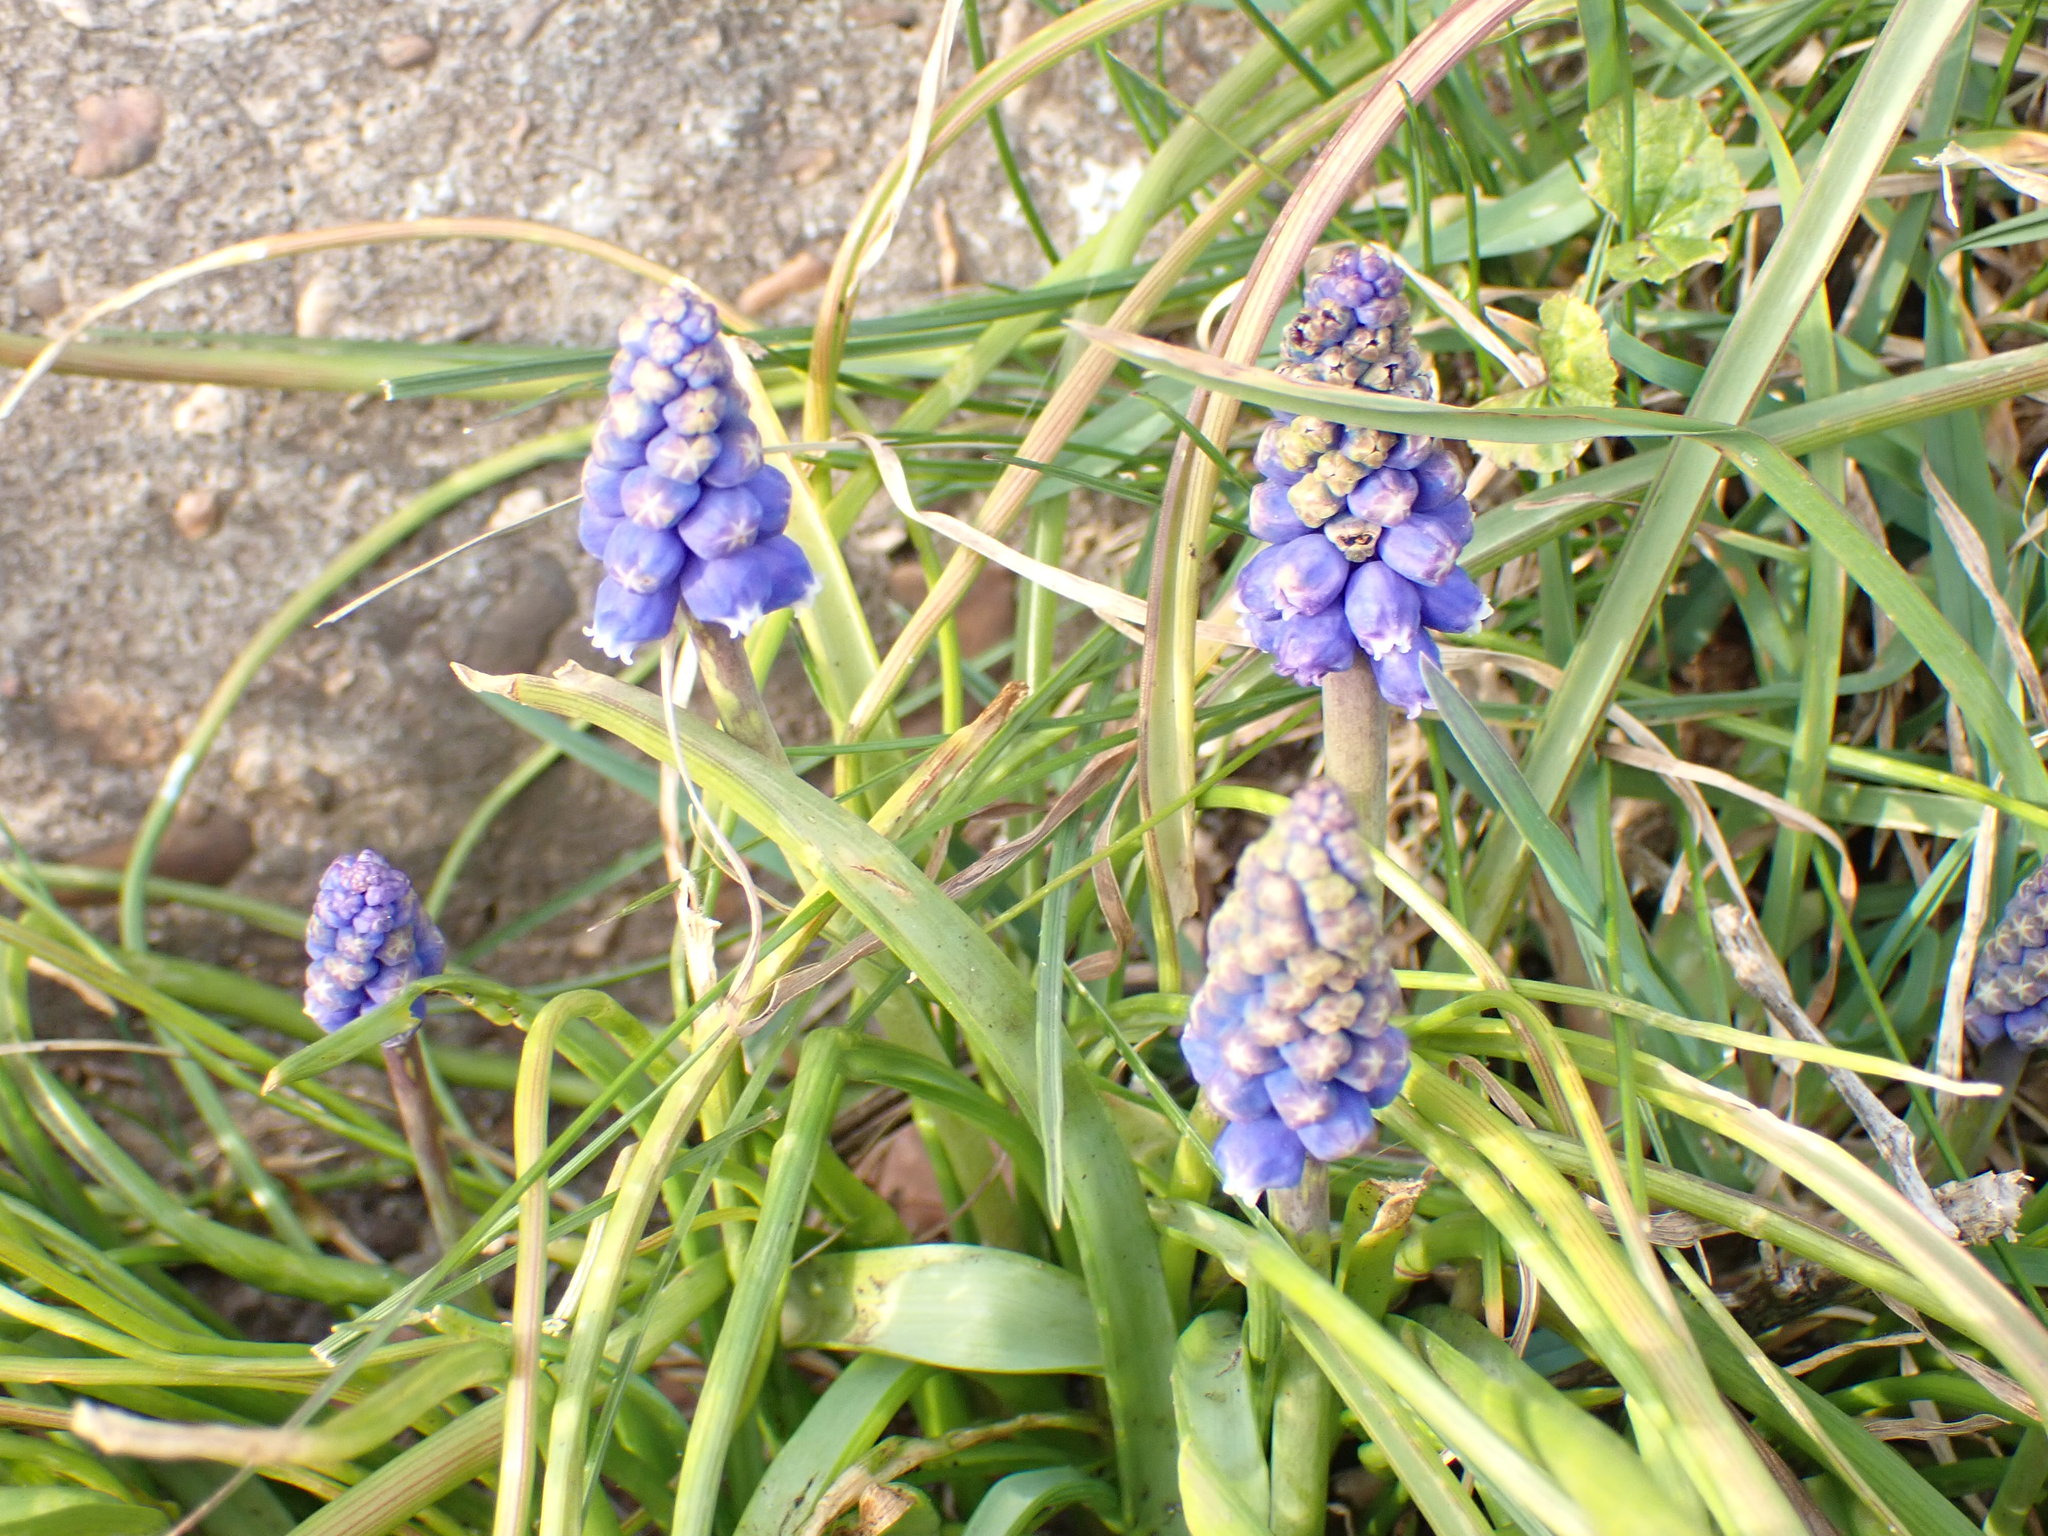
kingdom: Plantae
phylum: Tracheophyta
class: Liliopsida
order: Asparagales
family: Asparagaceae
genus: Muscari
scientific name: Muscari armeniacum
